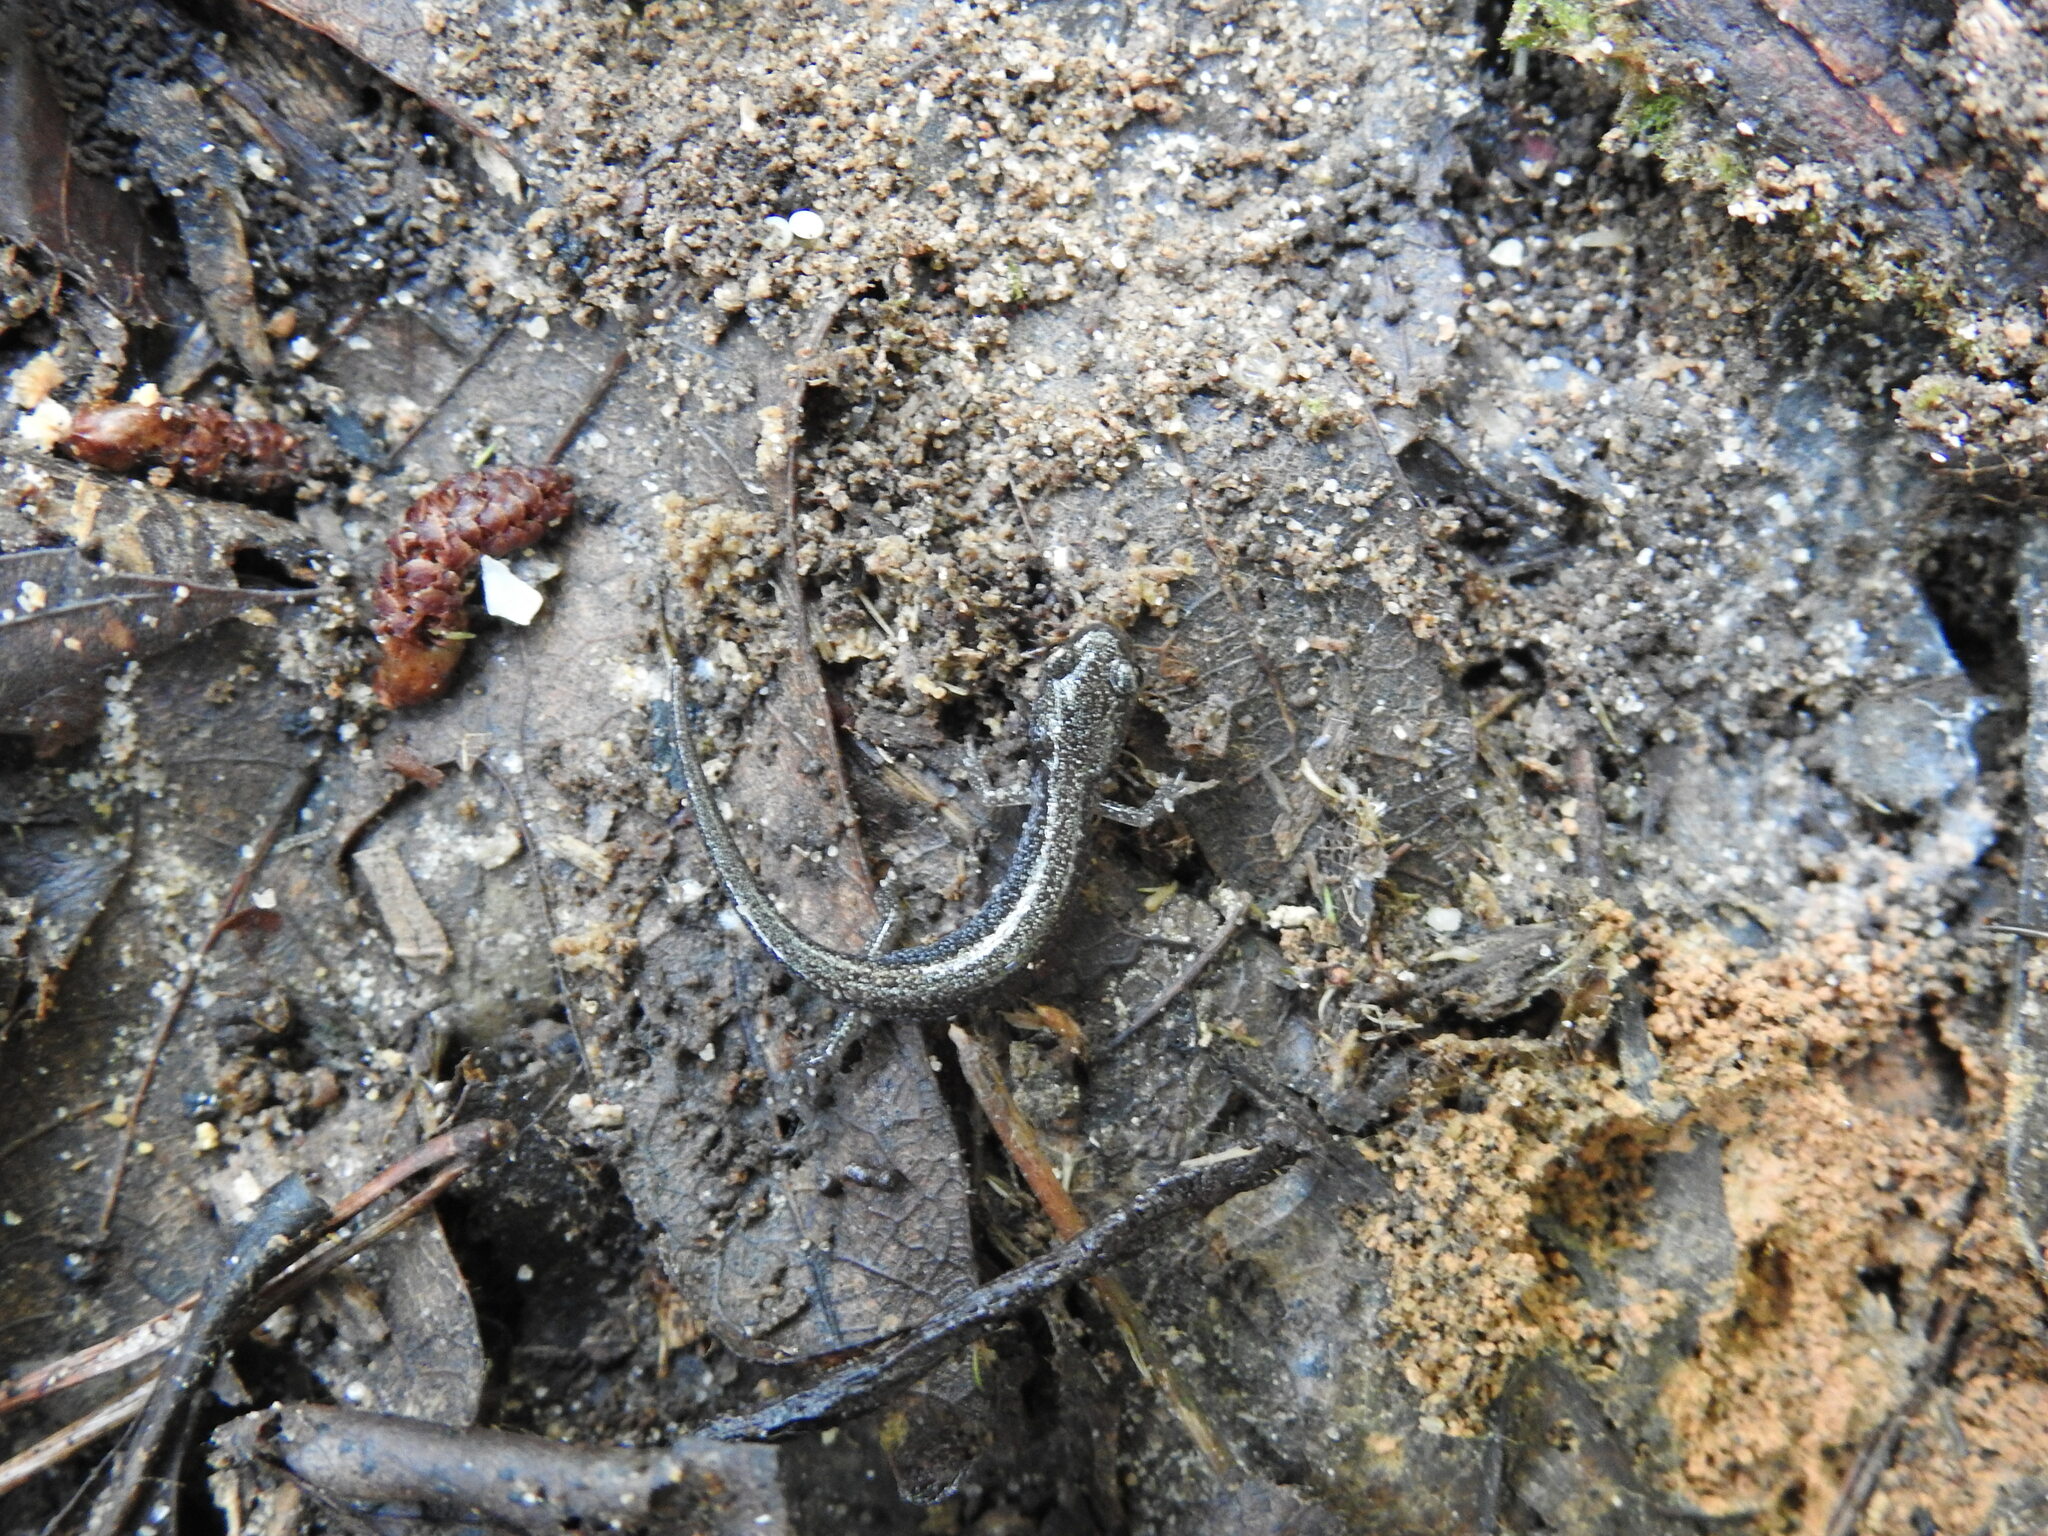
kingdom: Animalia
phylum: Chordata
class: Amphibia
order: Caudata
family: Plethodontidae
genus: Plethodon
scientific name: Plethodon cinereus
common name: Redback salamander
